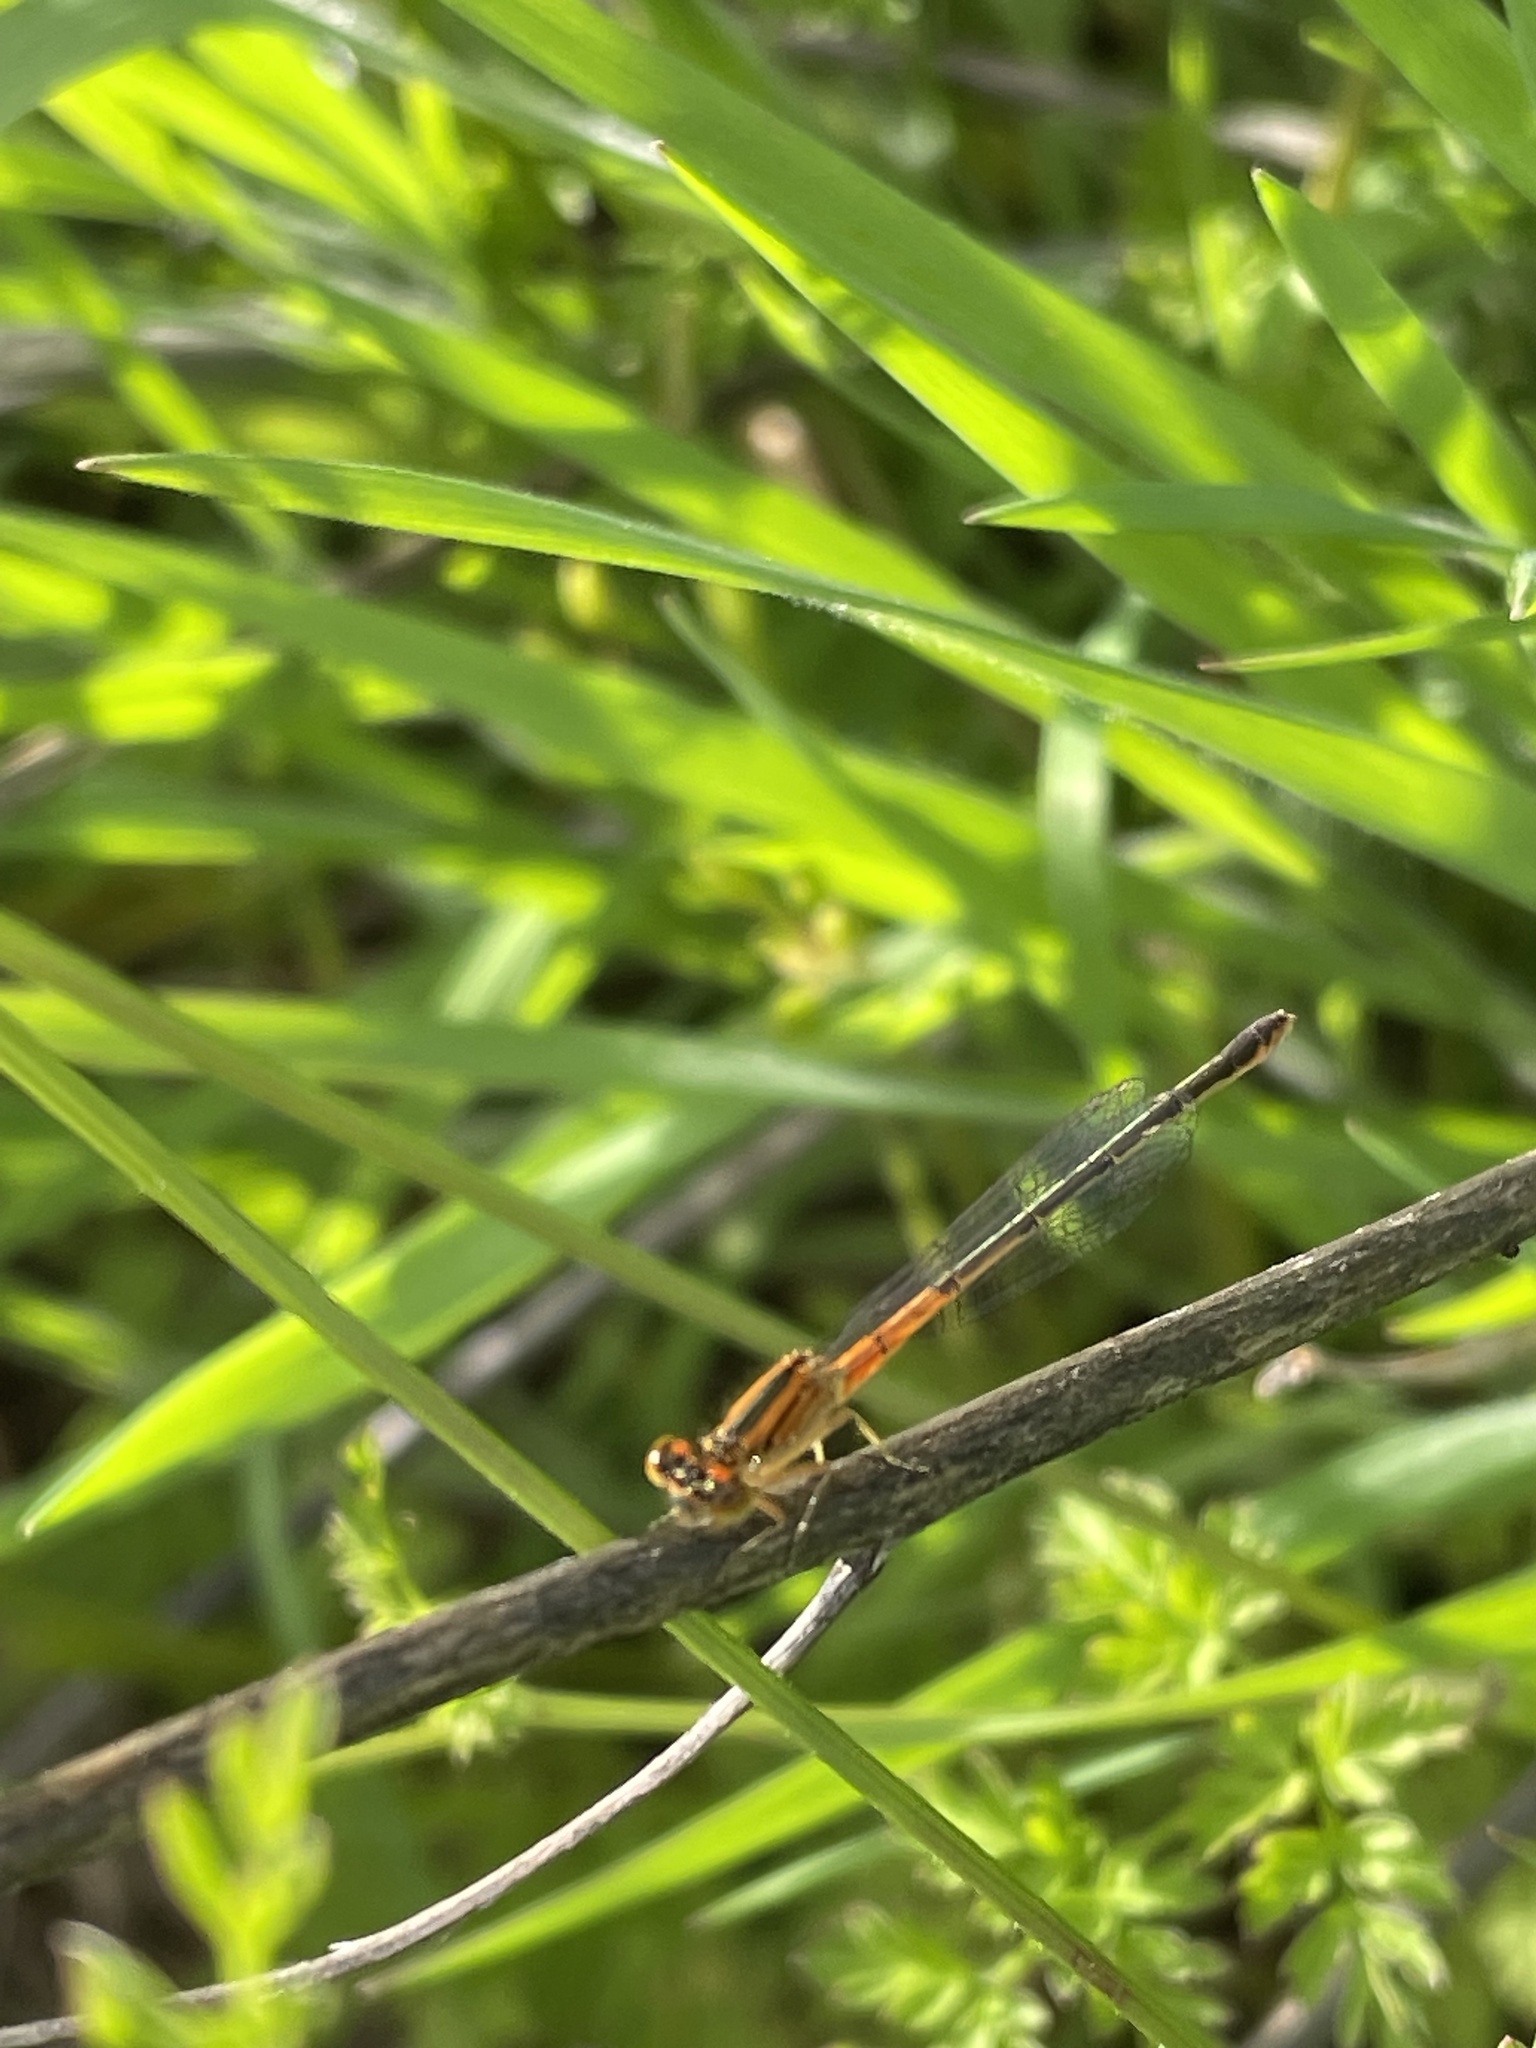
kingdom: Animalia
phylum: Arthropoda
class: Insecta
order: Odonata
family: Coenagrionidae
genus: Ischnura
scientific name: Ischnura verticalis
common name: Eastern forktail
